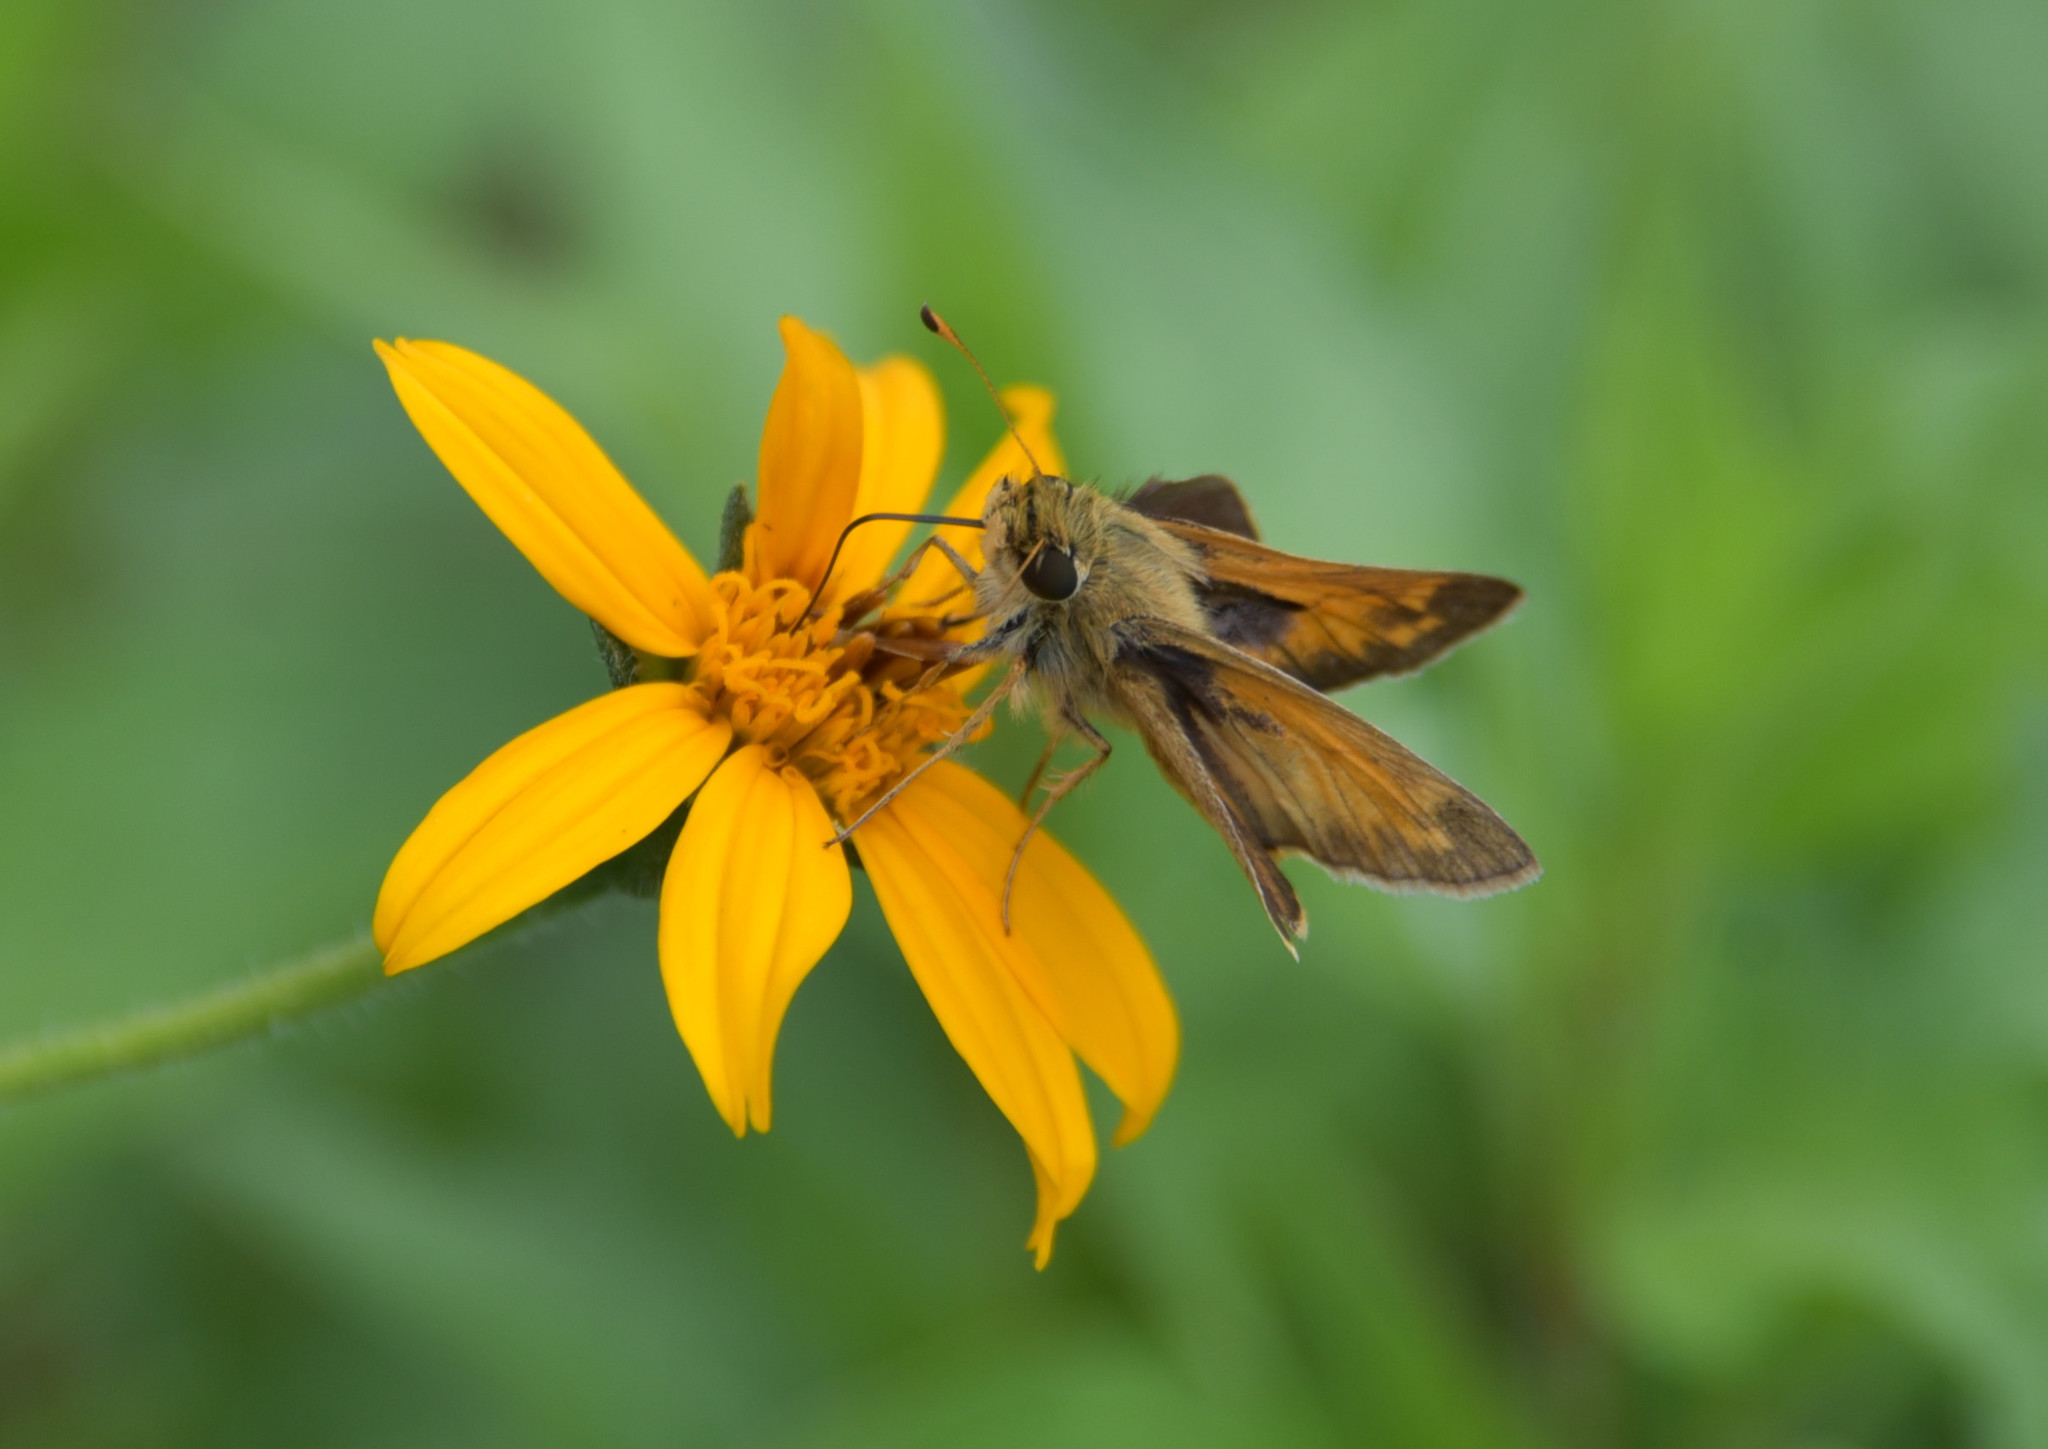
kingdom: Animalia
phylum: Arthropoda
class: Insecta
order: Lepidoptera
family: Hesperiidae
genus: Atalopedes
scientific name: Atalopedes
